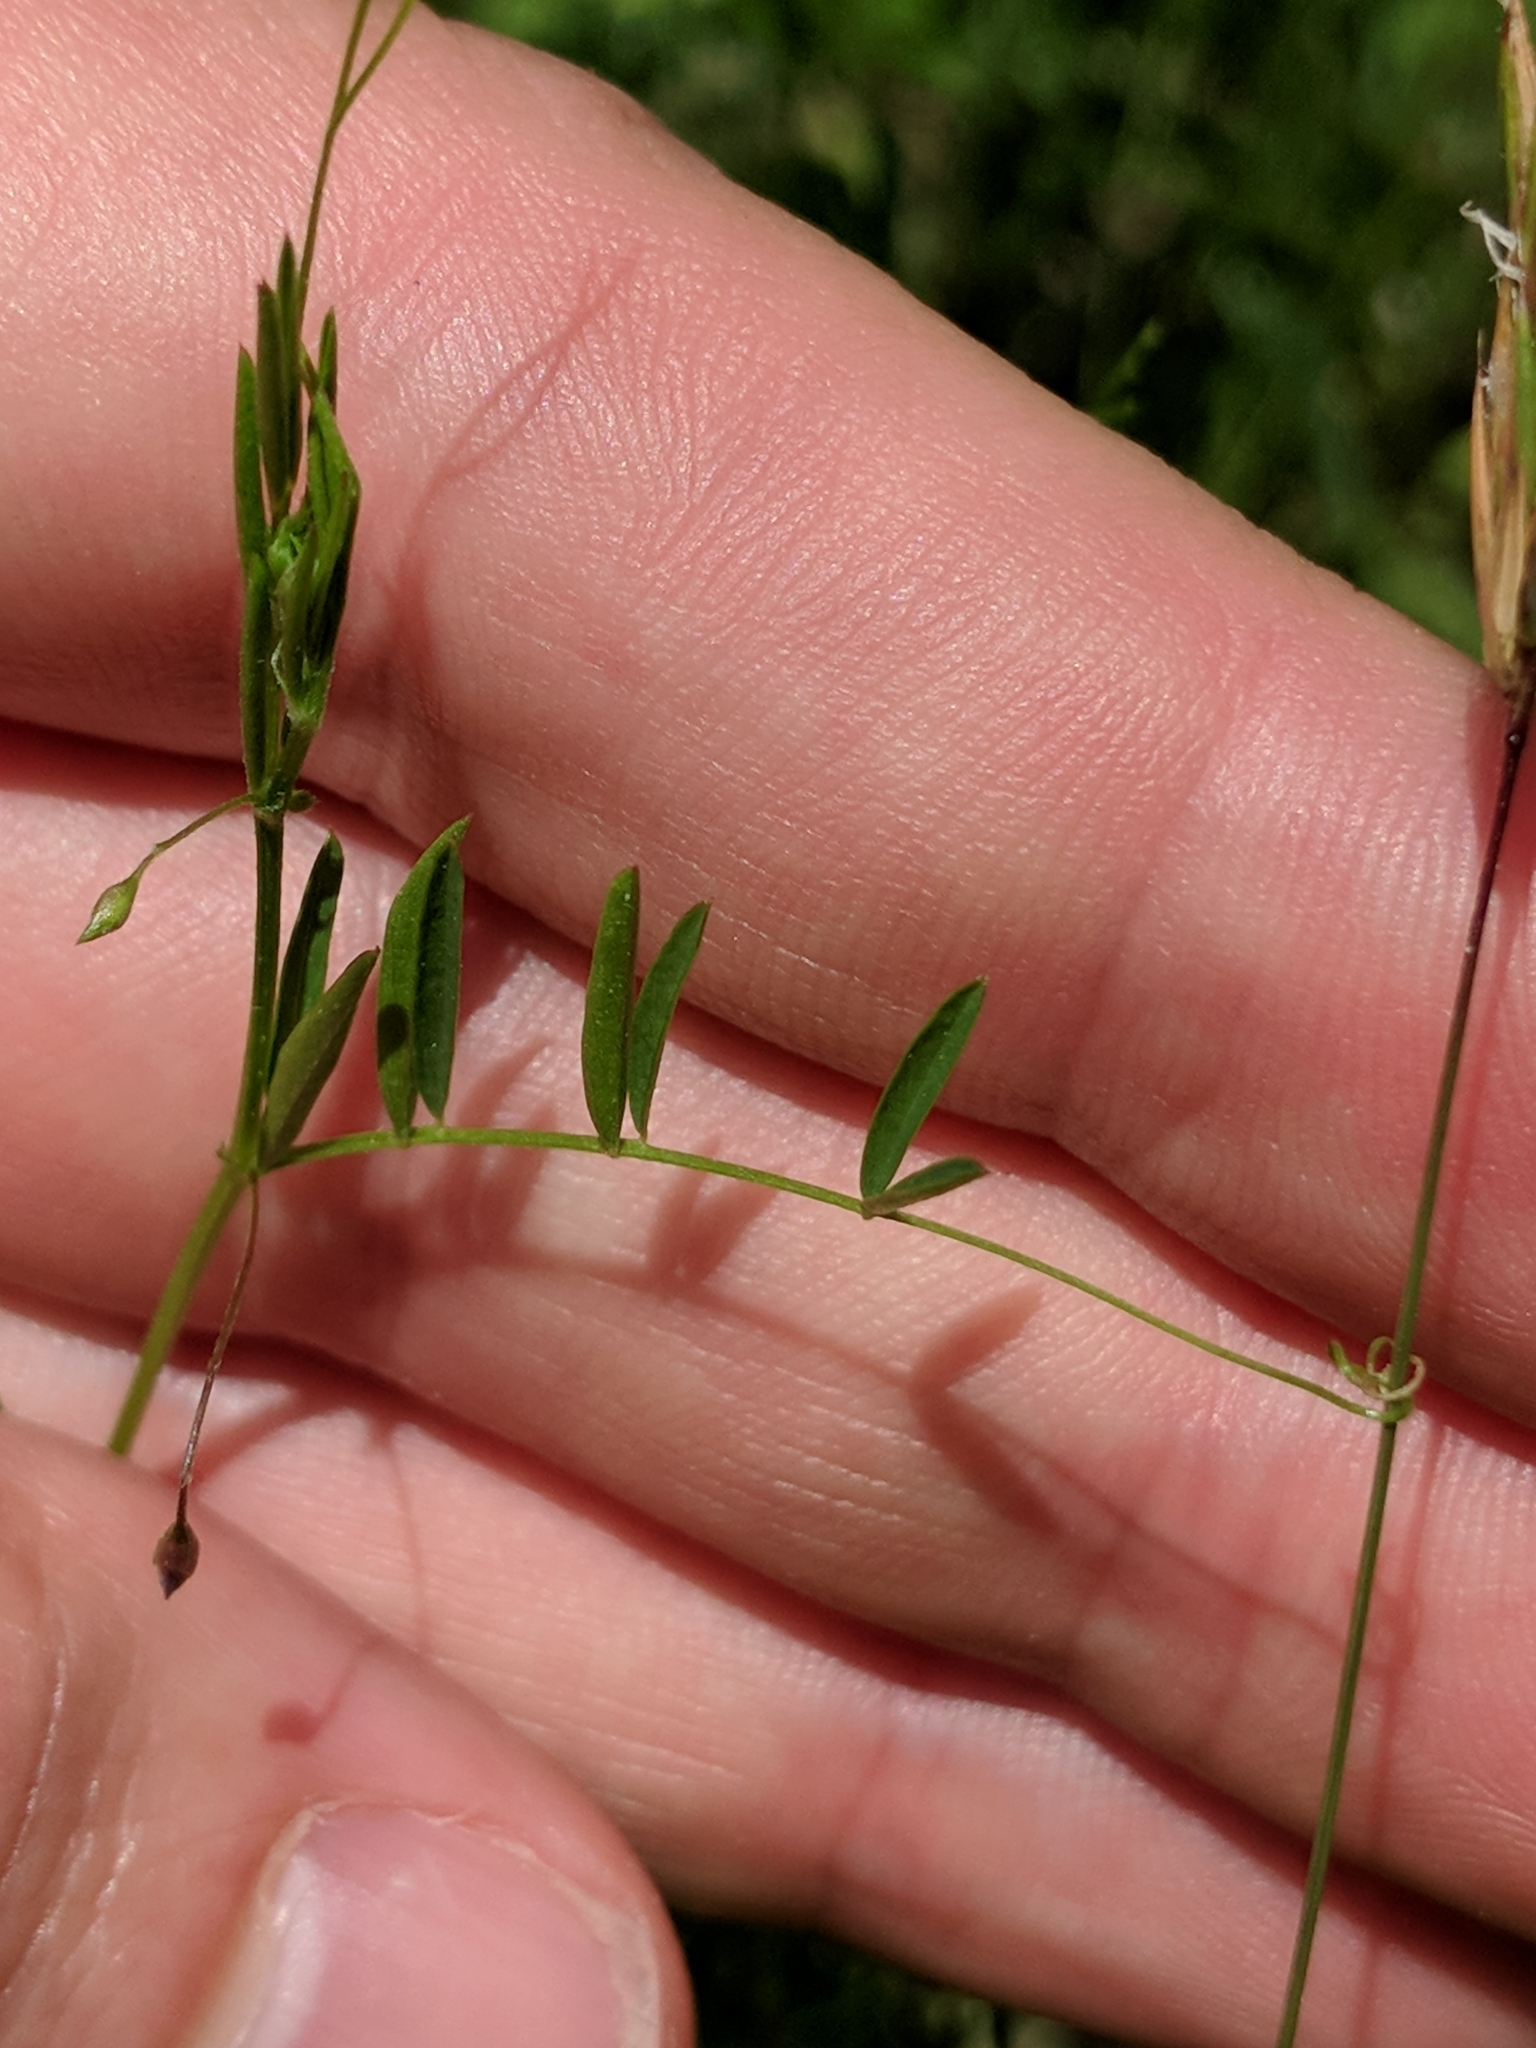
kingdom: Plantae
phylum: Tracheophyta
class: Magnoliopsida
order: Fabales
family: Fabaceae
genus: Vicia
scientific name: Vicia tetrasperma
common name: Smooth tare
